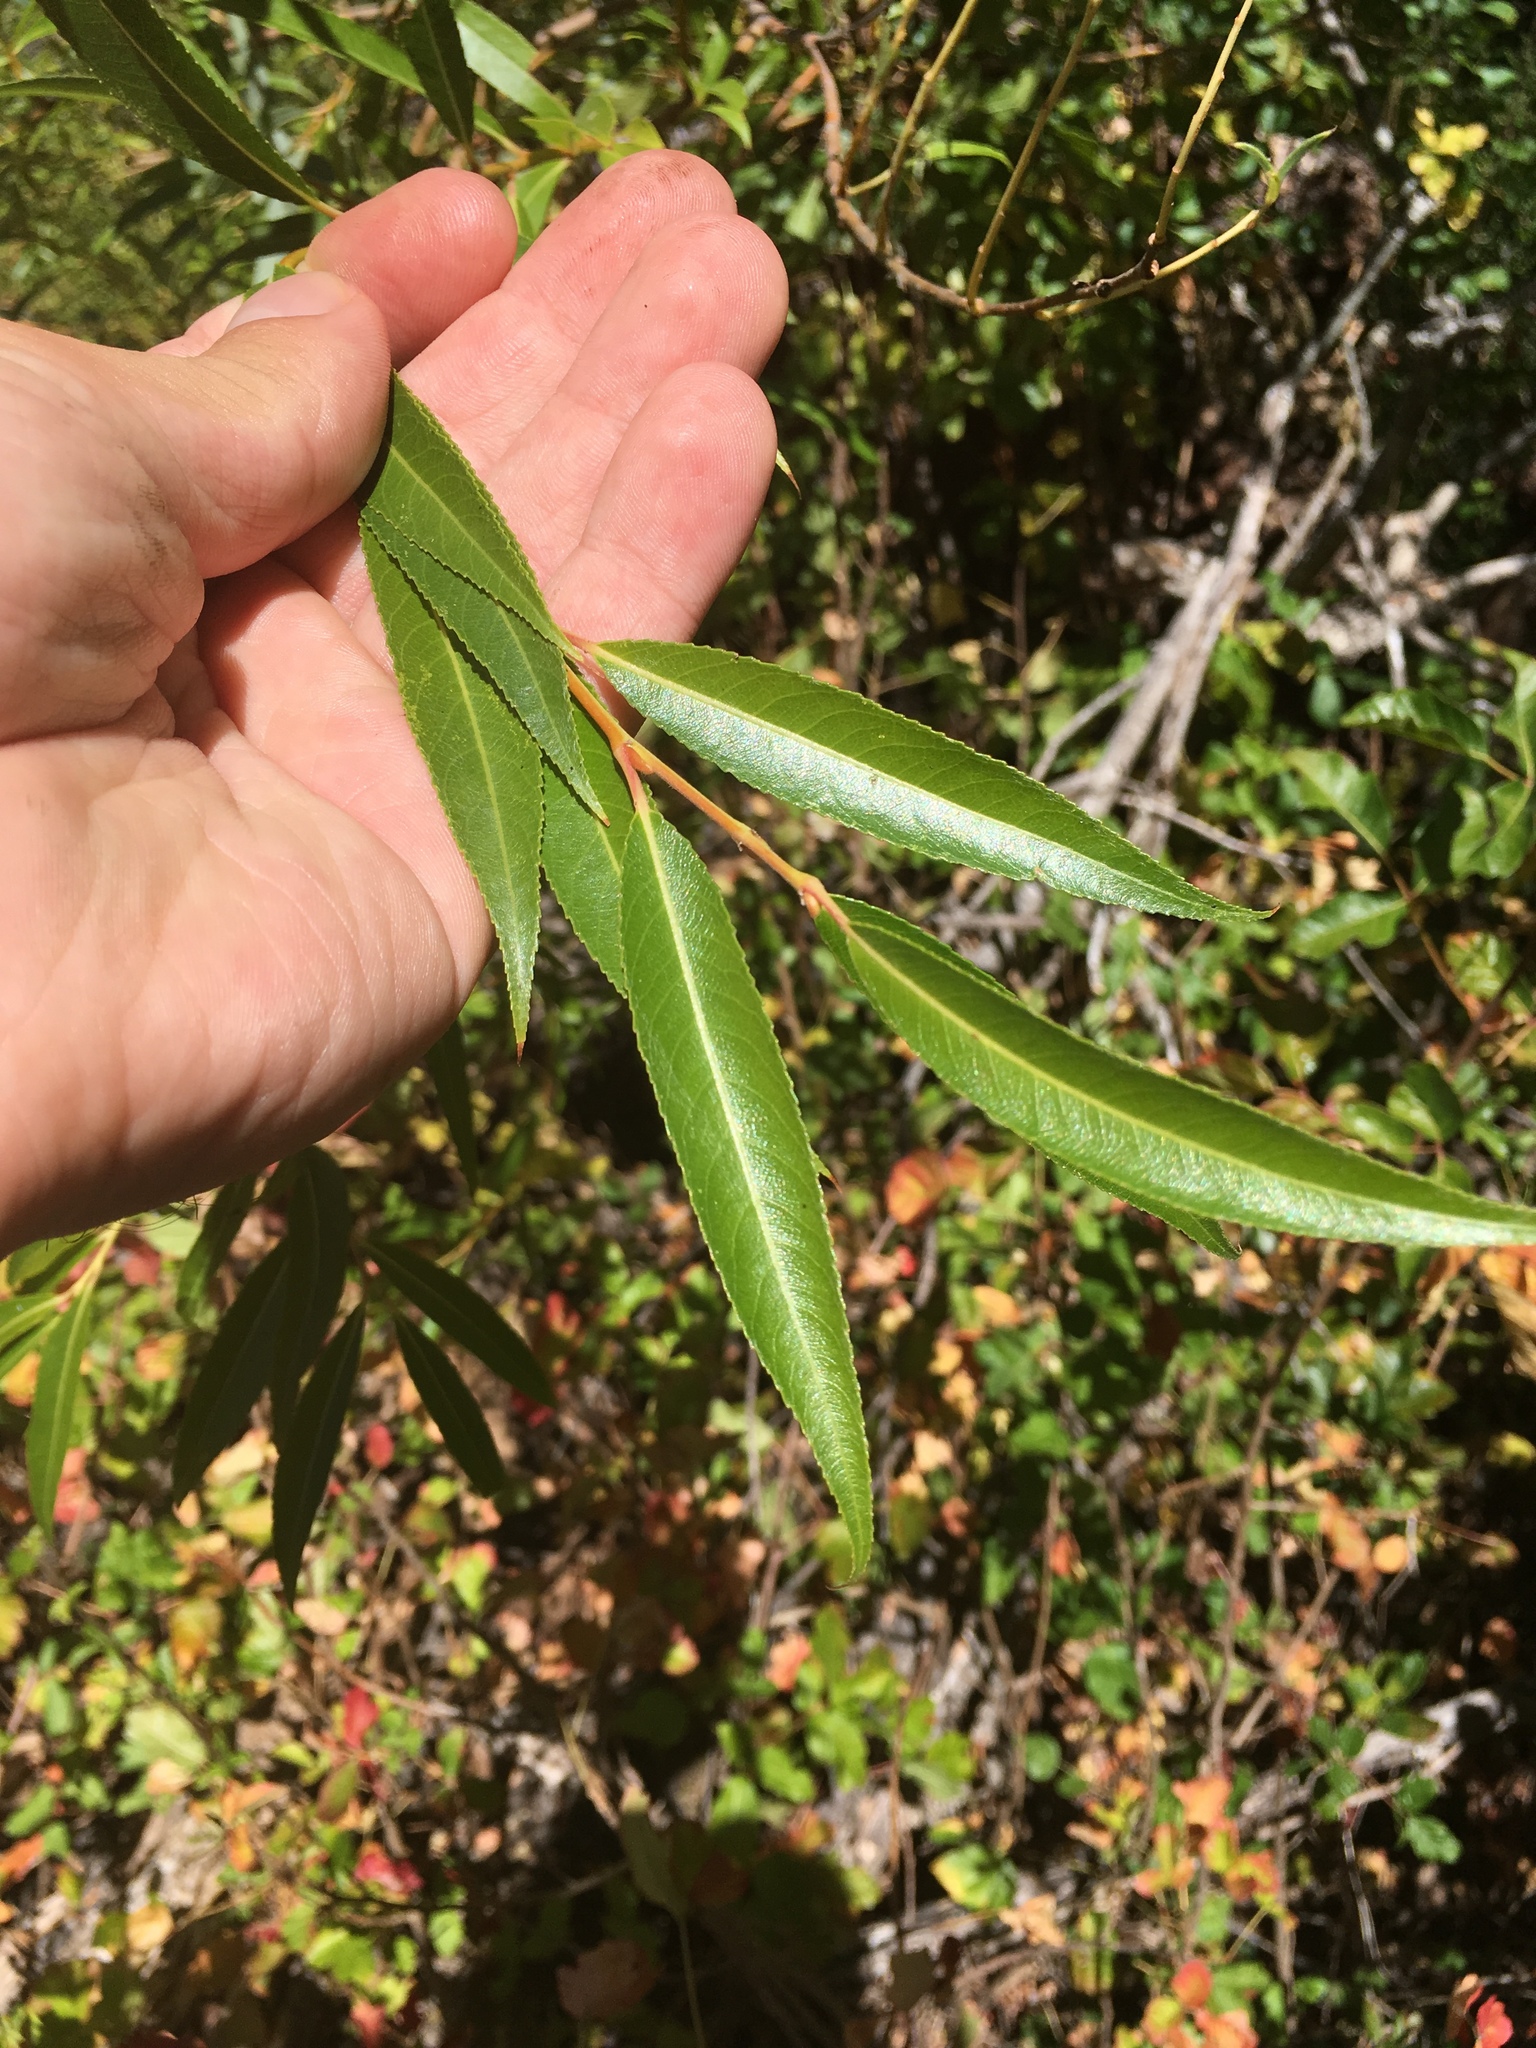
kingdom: Plantae
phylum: Tracheophyta
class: Magnoliopsida
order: Malpighiales
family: Salicaceae
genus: Salix
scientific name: Salix lucida
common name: Shining willow
